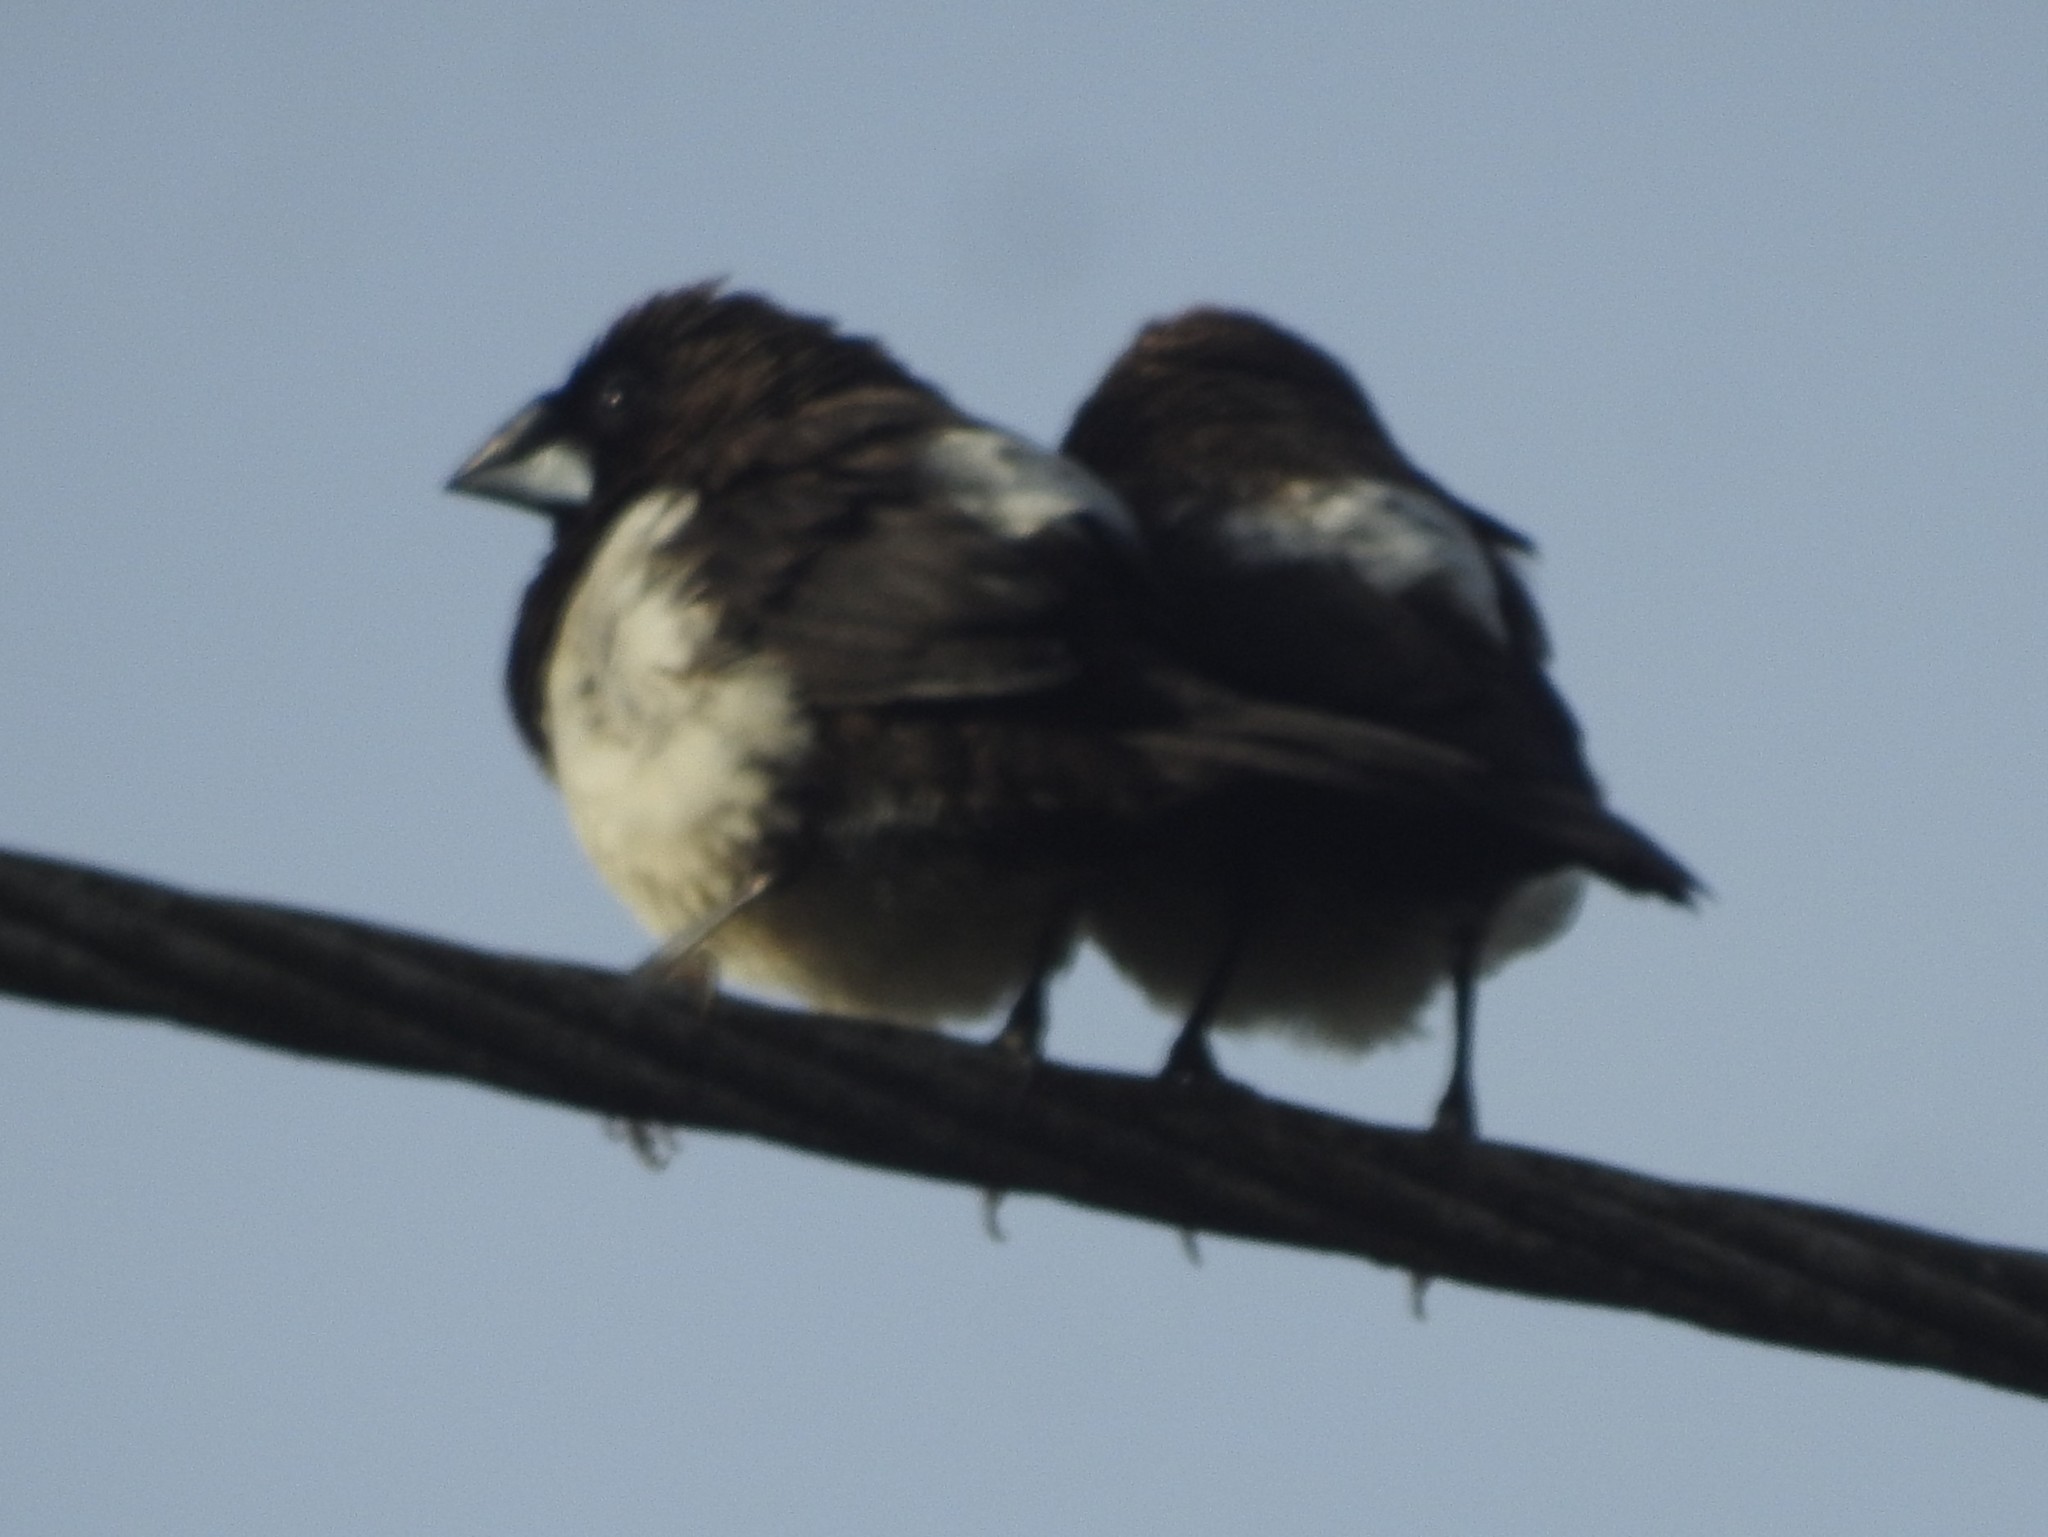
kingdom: Animalia
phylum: Chordata
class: Aves
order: Passeriformes
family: Estrildidae
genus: Lonchura
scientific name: Lonchura striata
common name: White-rumped munia
